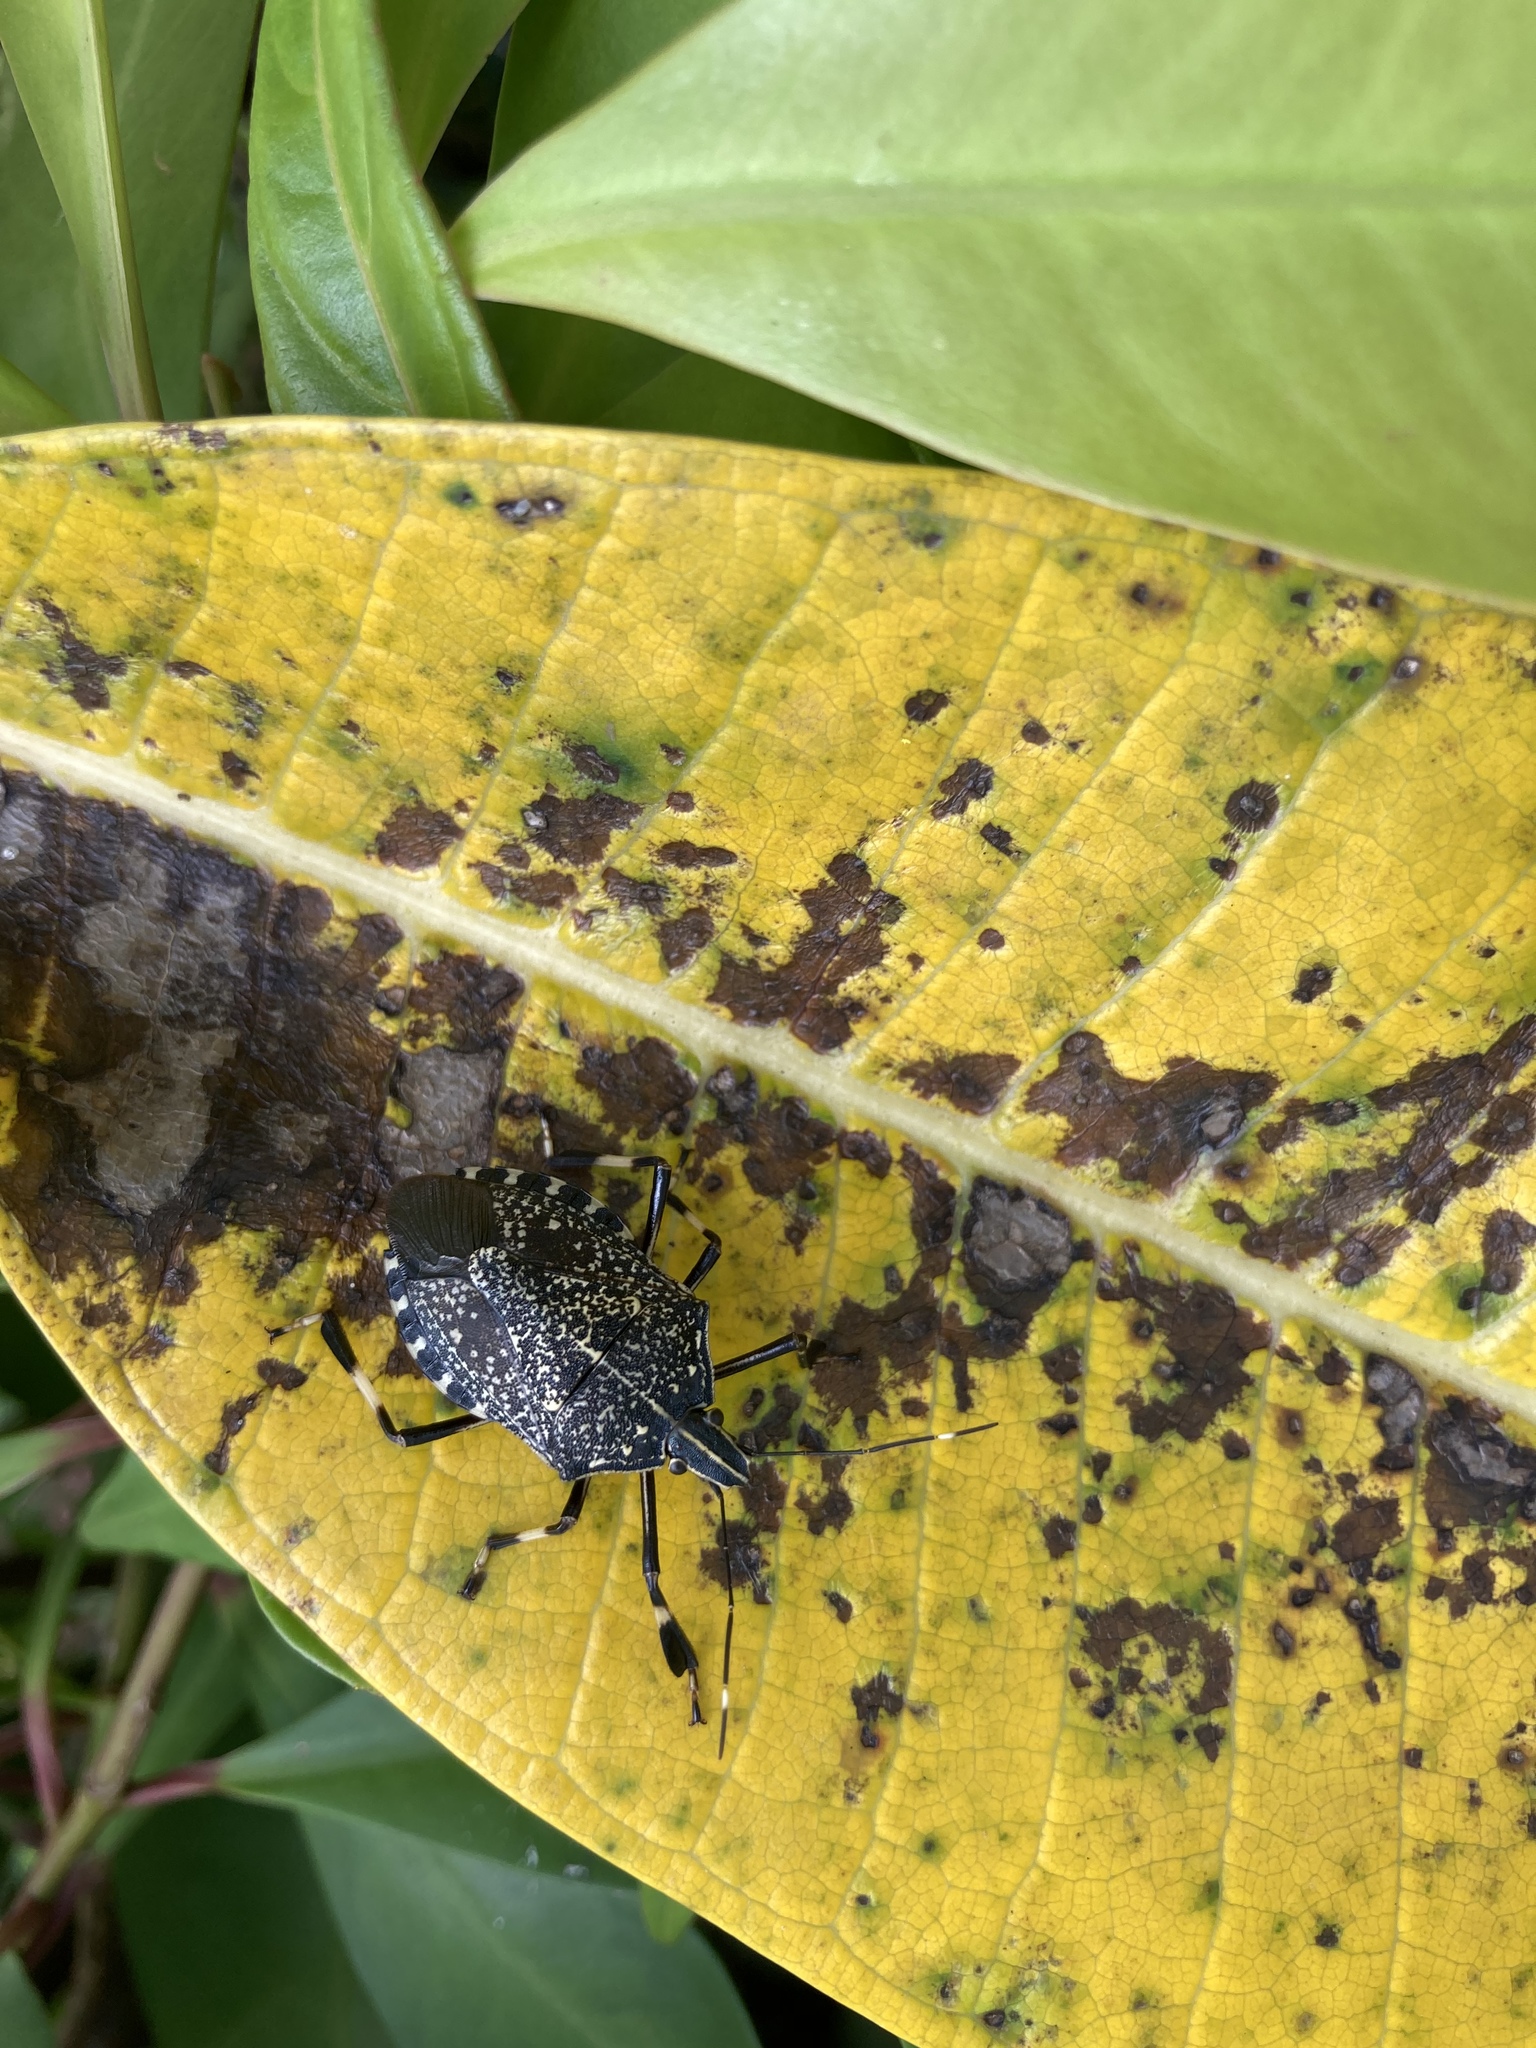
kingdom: Animalia
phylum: Arthropoda
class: Insecta
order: Hemiptera
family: Pentatomidae
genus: Erthesina
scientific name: Erthesina fullo
